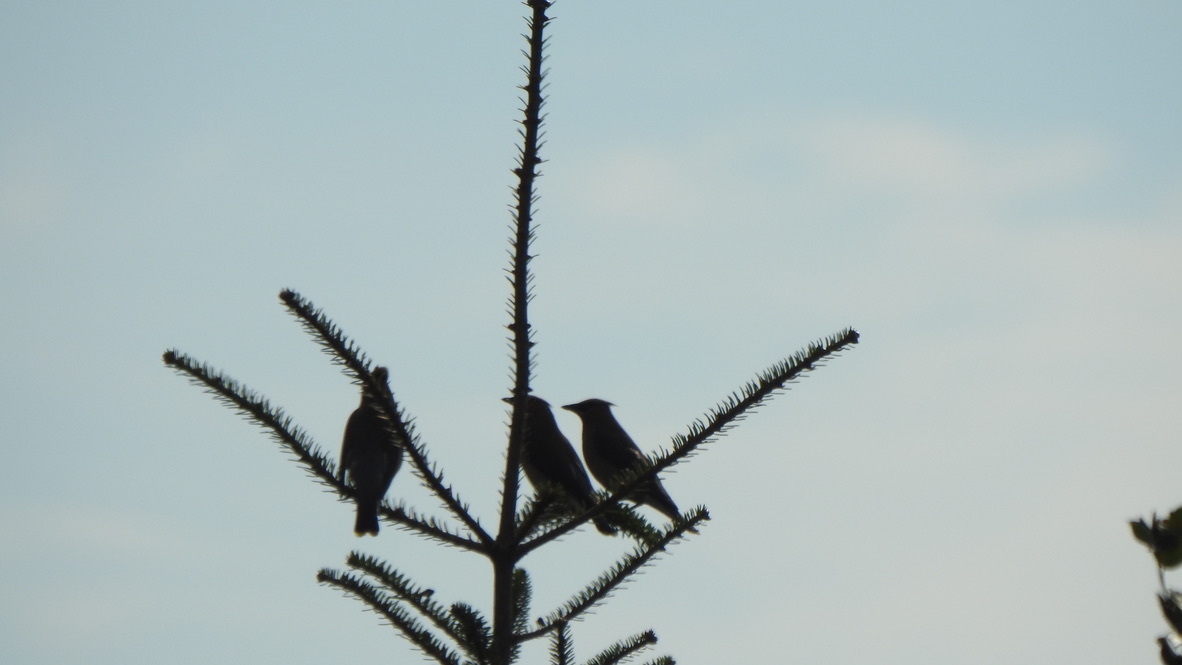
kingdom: Animalia
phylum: Chordata
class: Aves
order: Passeriformes
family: Bombycillidae
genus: Bombycilla
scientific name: Bombycilla cedrorum
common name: Cedar waxwing
